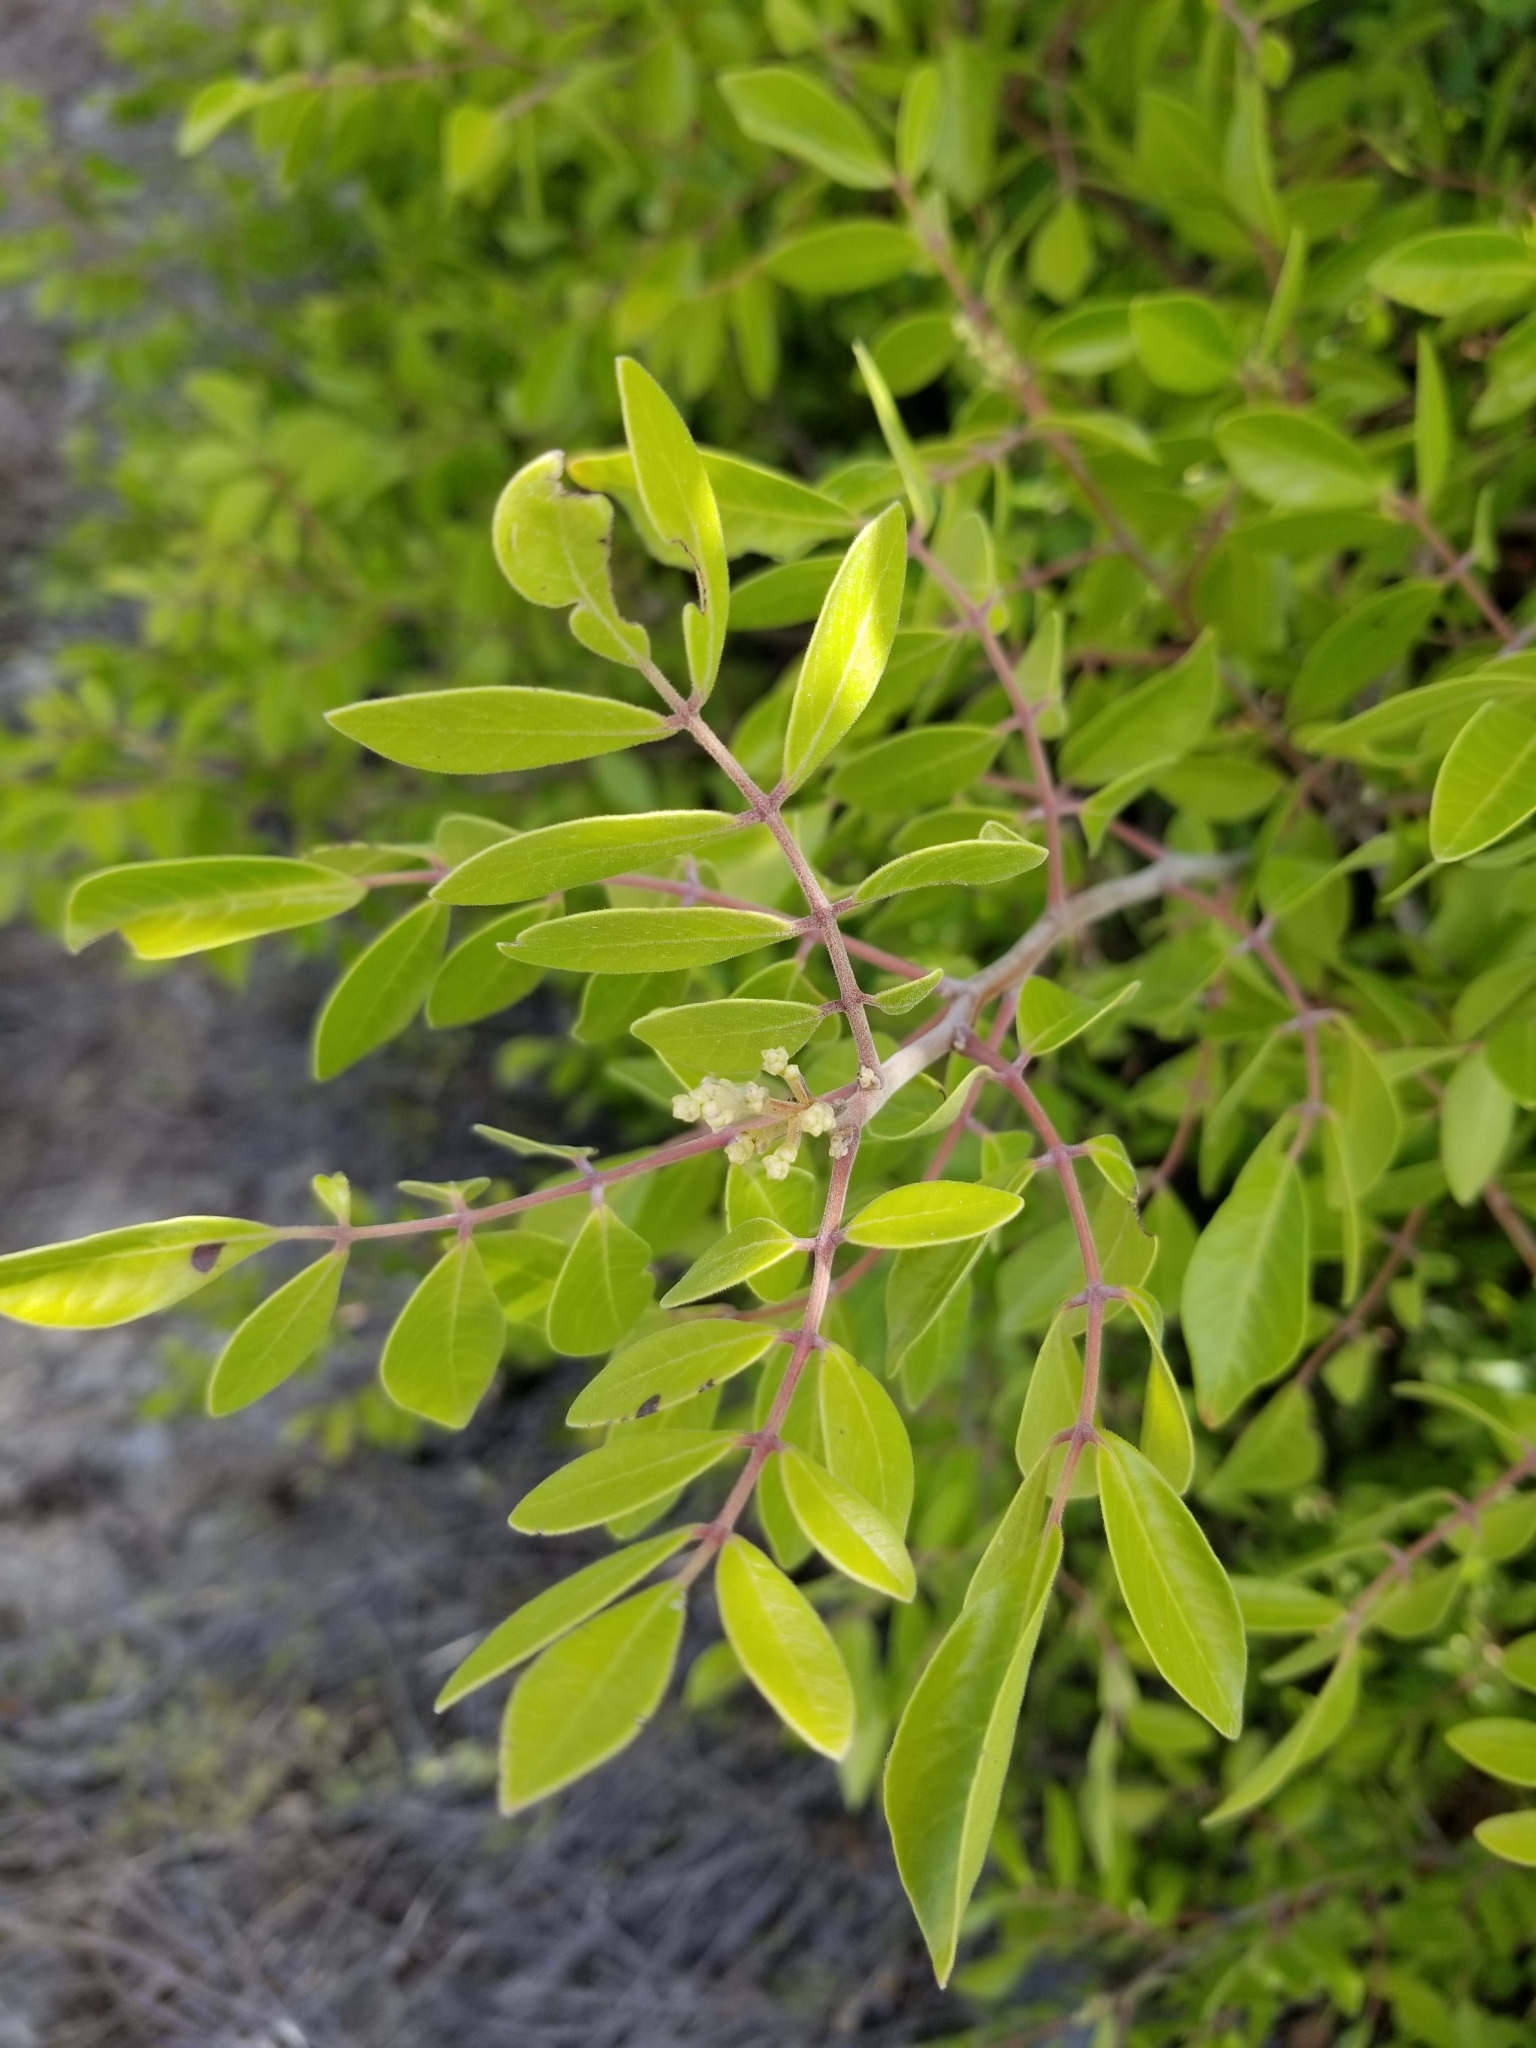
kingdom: Plantae
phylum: Tracheophyta
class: Magnoliopsida
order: Sapindales
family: Anacardiaceae
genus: Rhus
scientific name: Rhus virens
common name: Evergreen sumac
